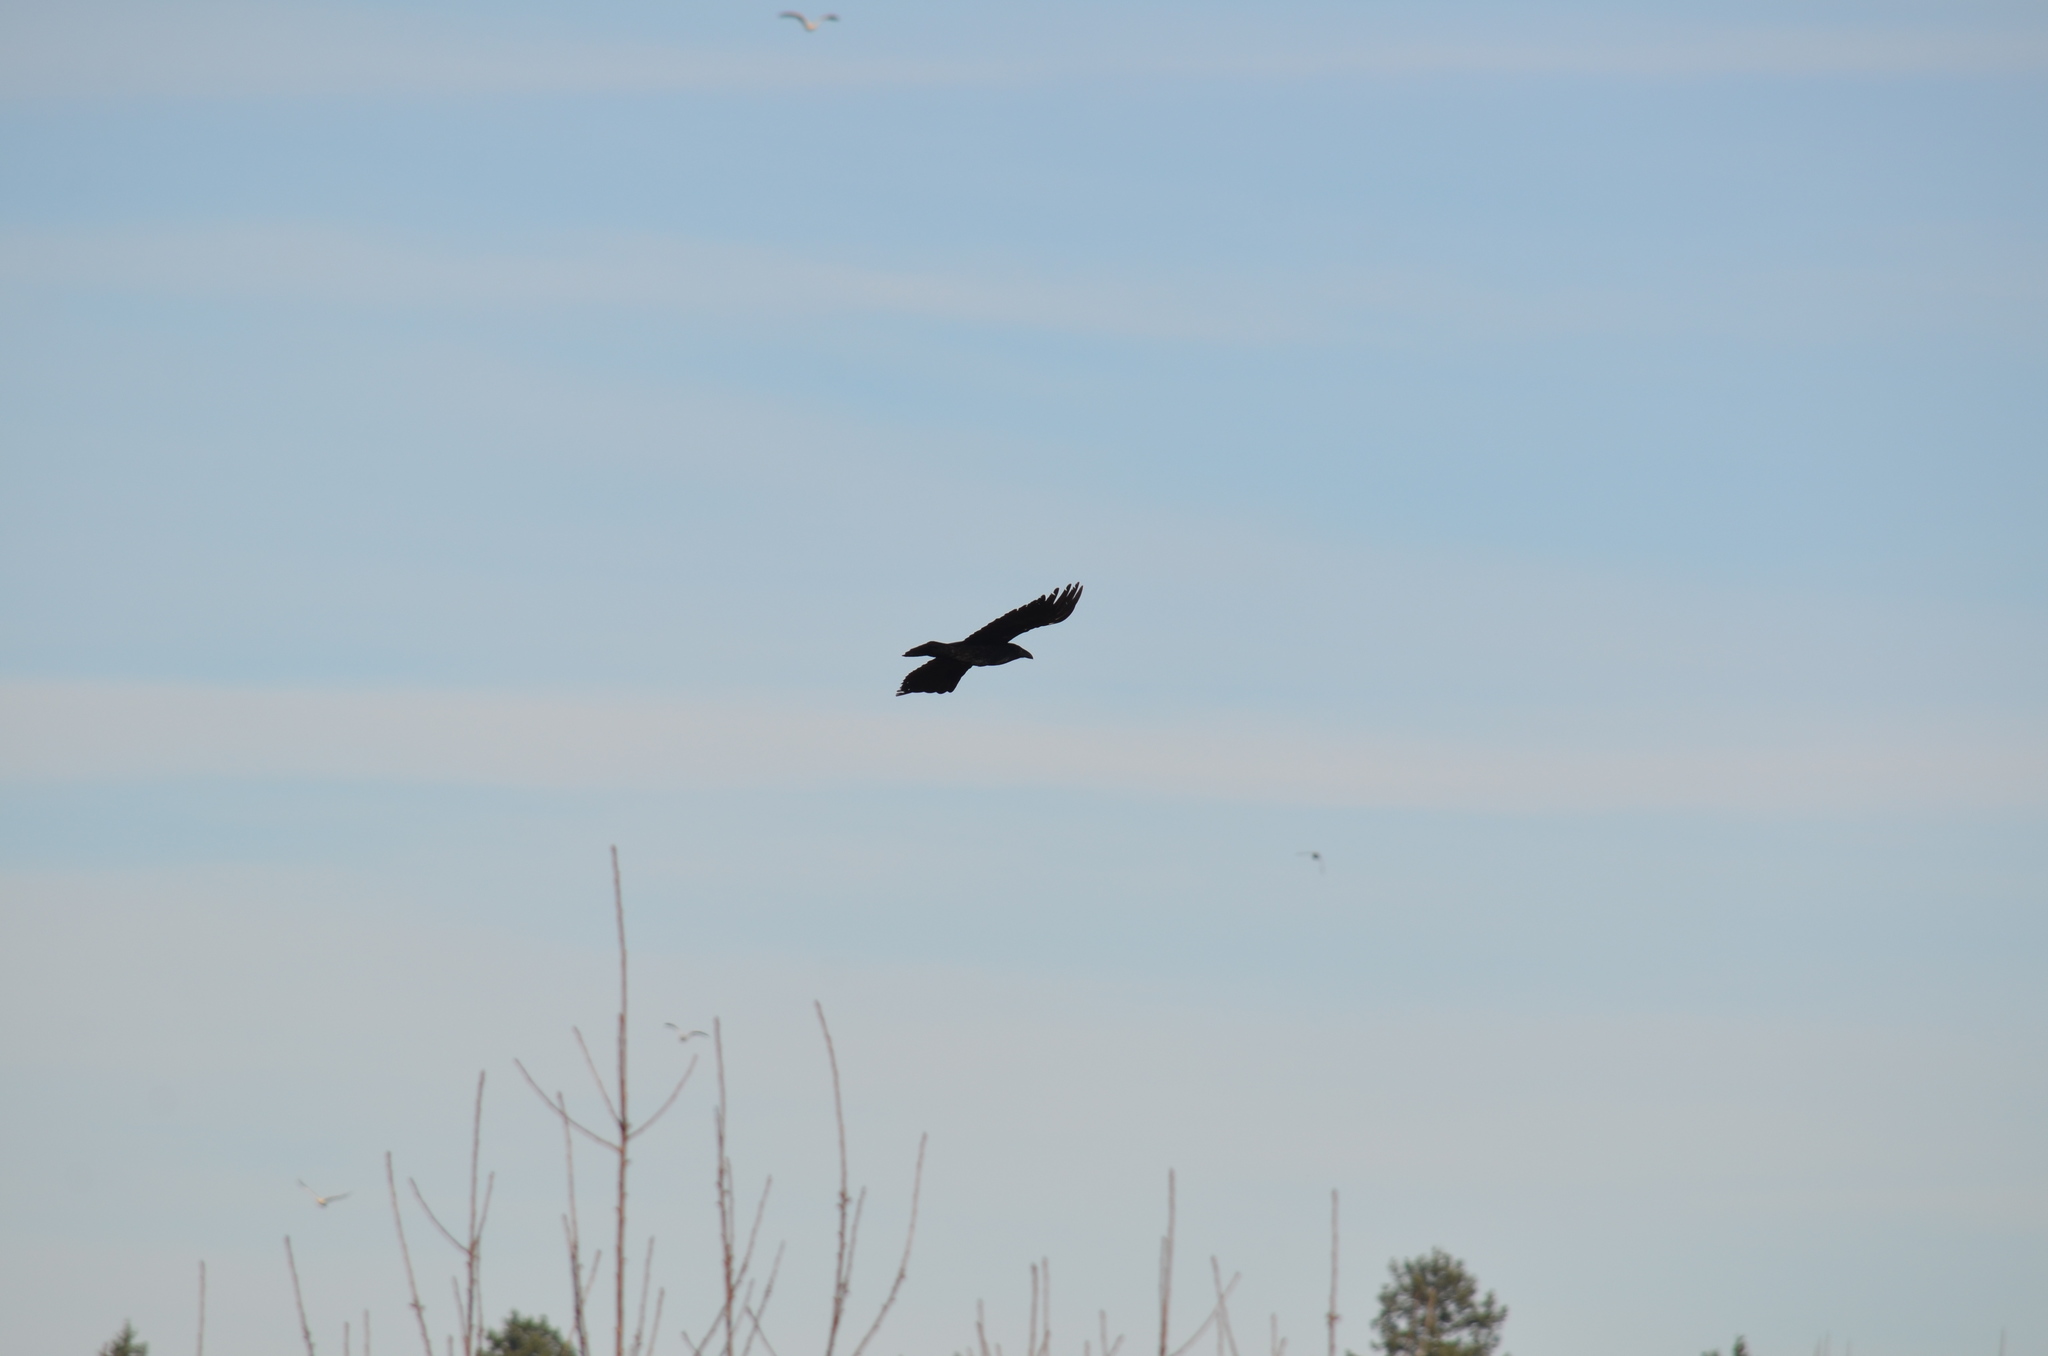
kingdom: Animalia
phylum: Chordata
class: Aves
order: Passeriformes
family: Corvidae
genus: Corvus
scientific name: Corvus corax
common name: Common raven
